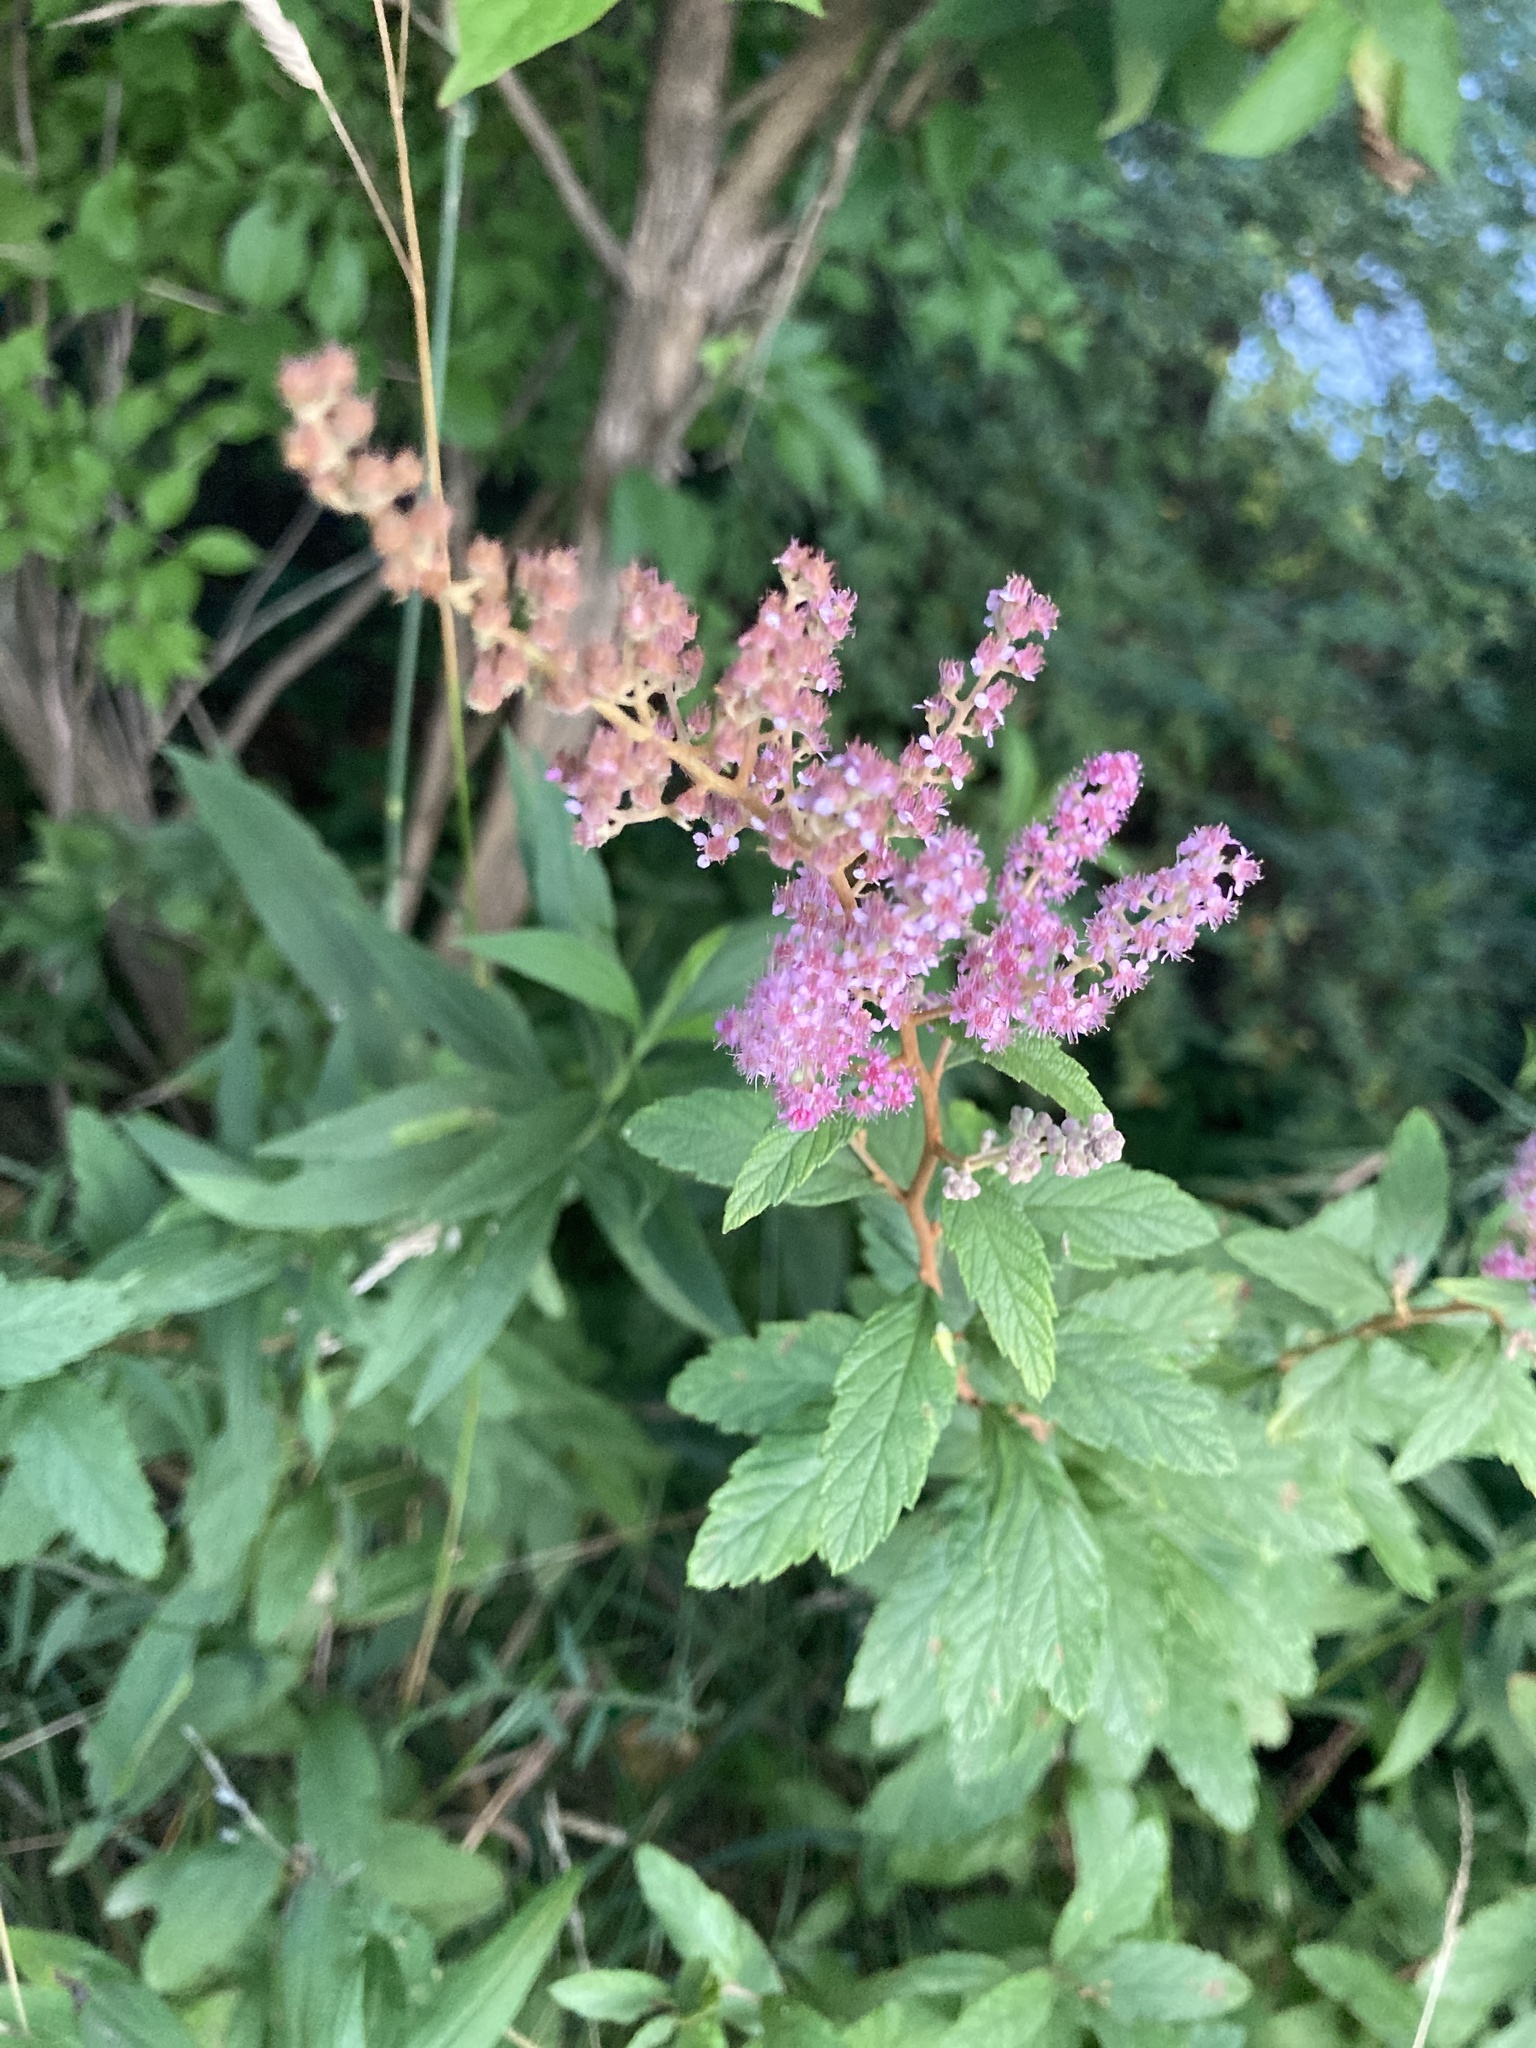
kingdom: Plantae
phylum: Tracheophyta
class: Magnoliopsida
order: Rosales
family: Rosaceae
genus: Spiraea
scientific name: Spiraea tomentosa
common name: Hardhack
